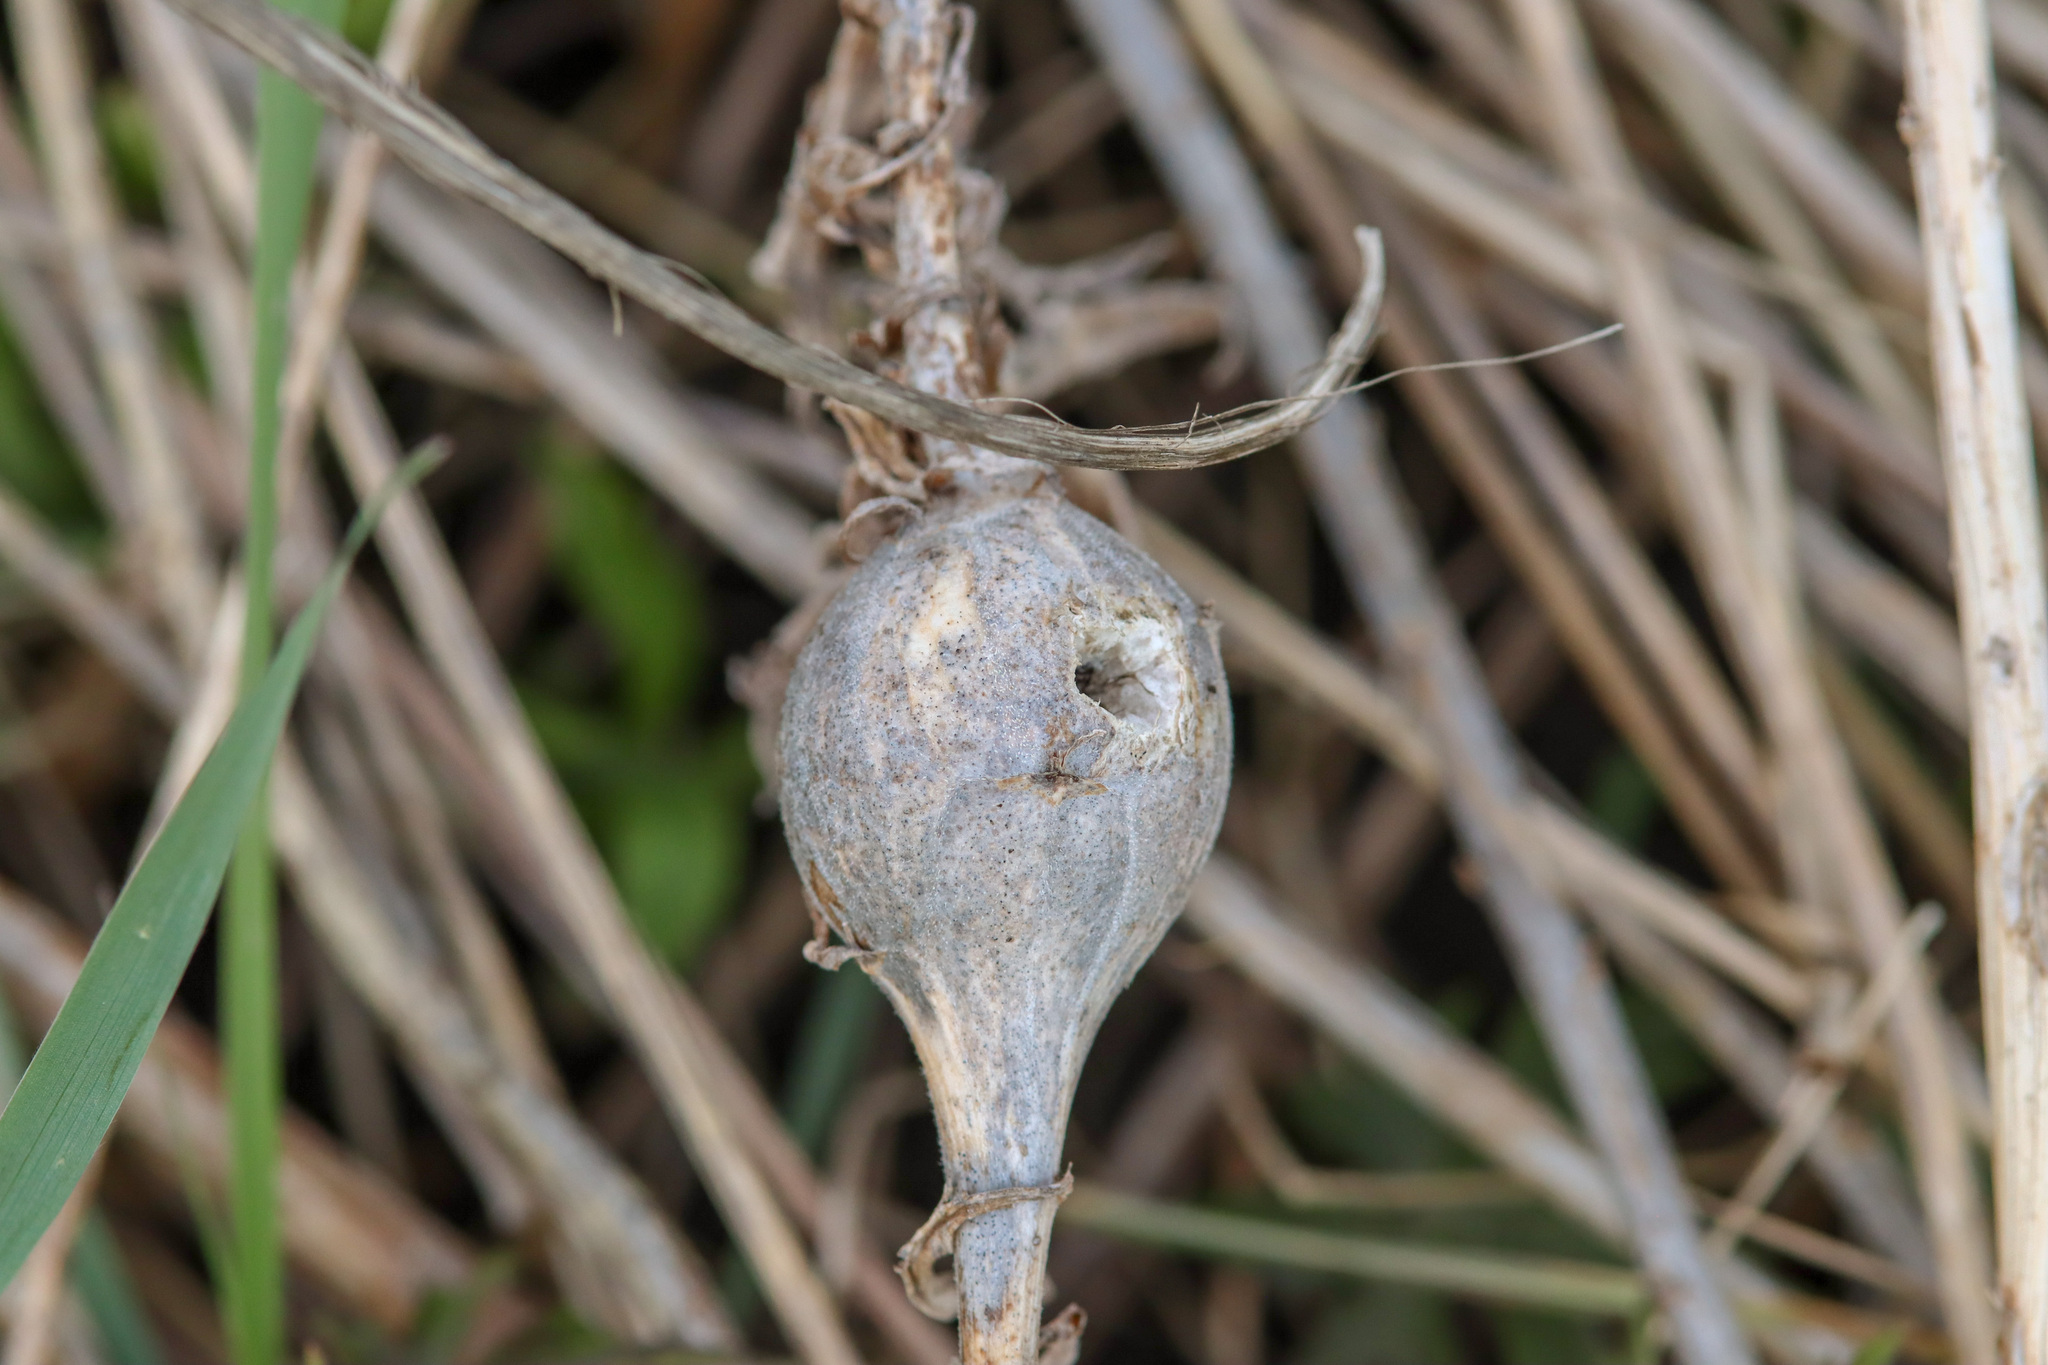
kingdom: Animalia
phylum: Arthropoda
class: Insecta
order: Diptera
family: Tephritidae
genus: Eurosta
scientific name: Eurosta solidaginis
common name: Goldenrod gall fly
